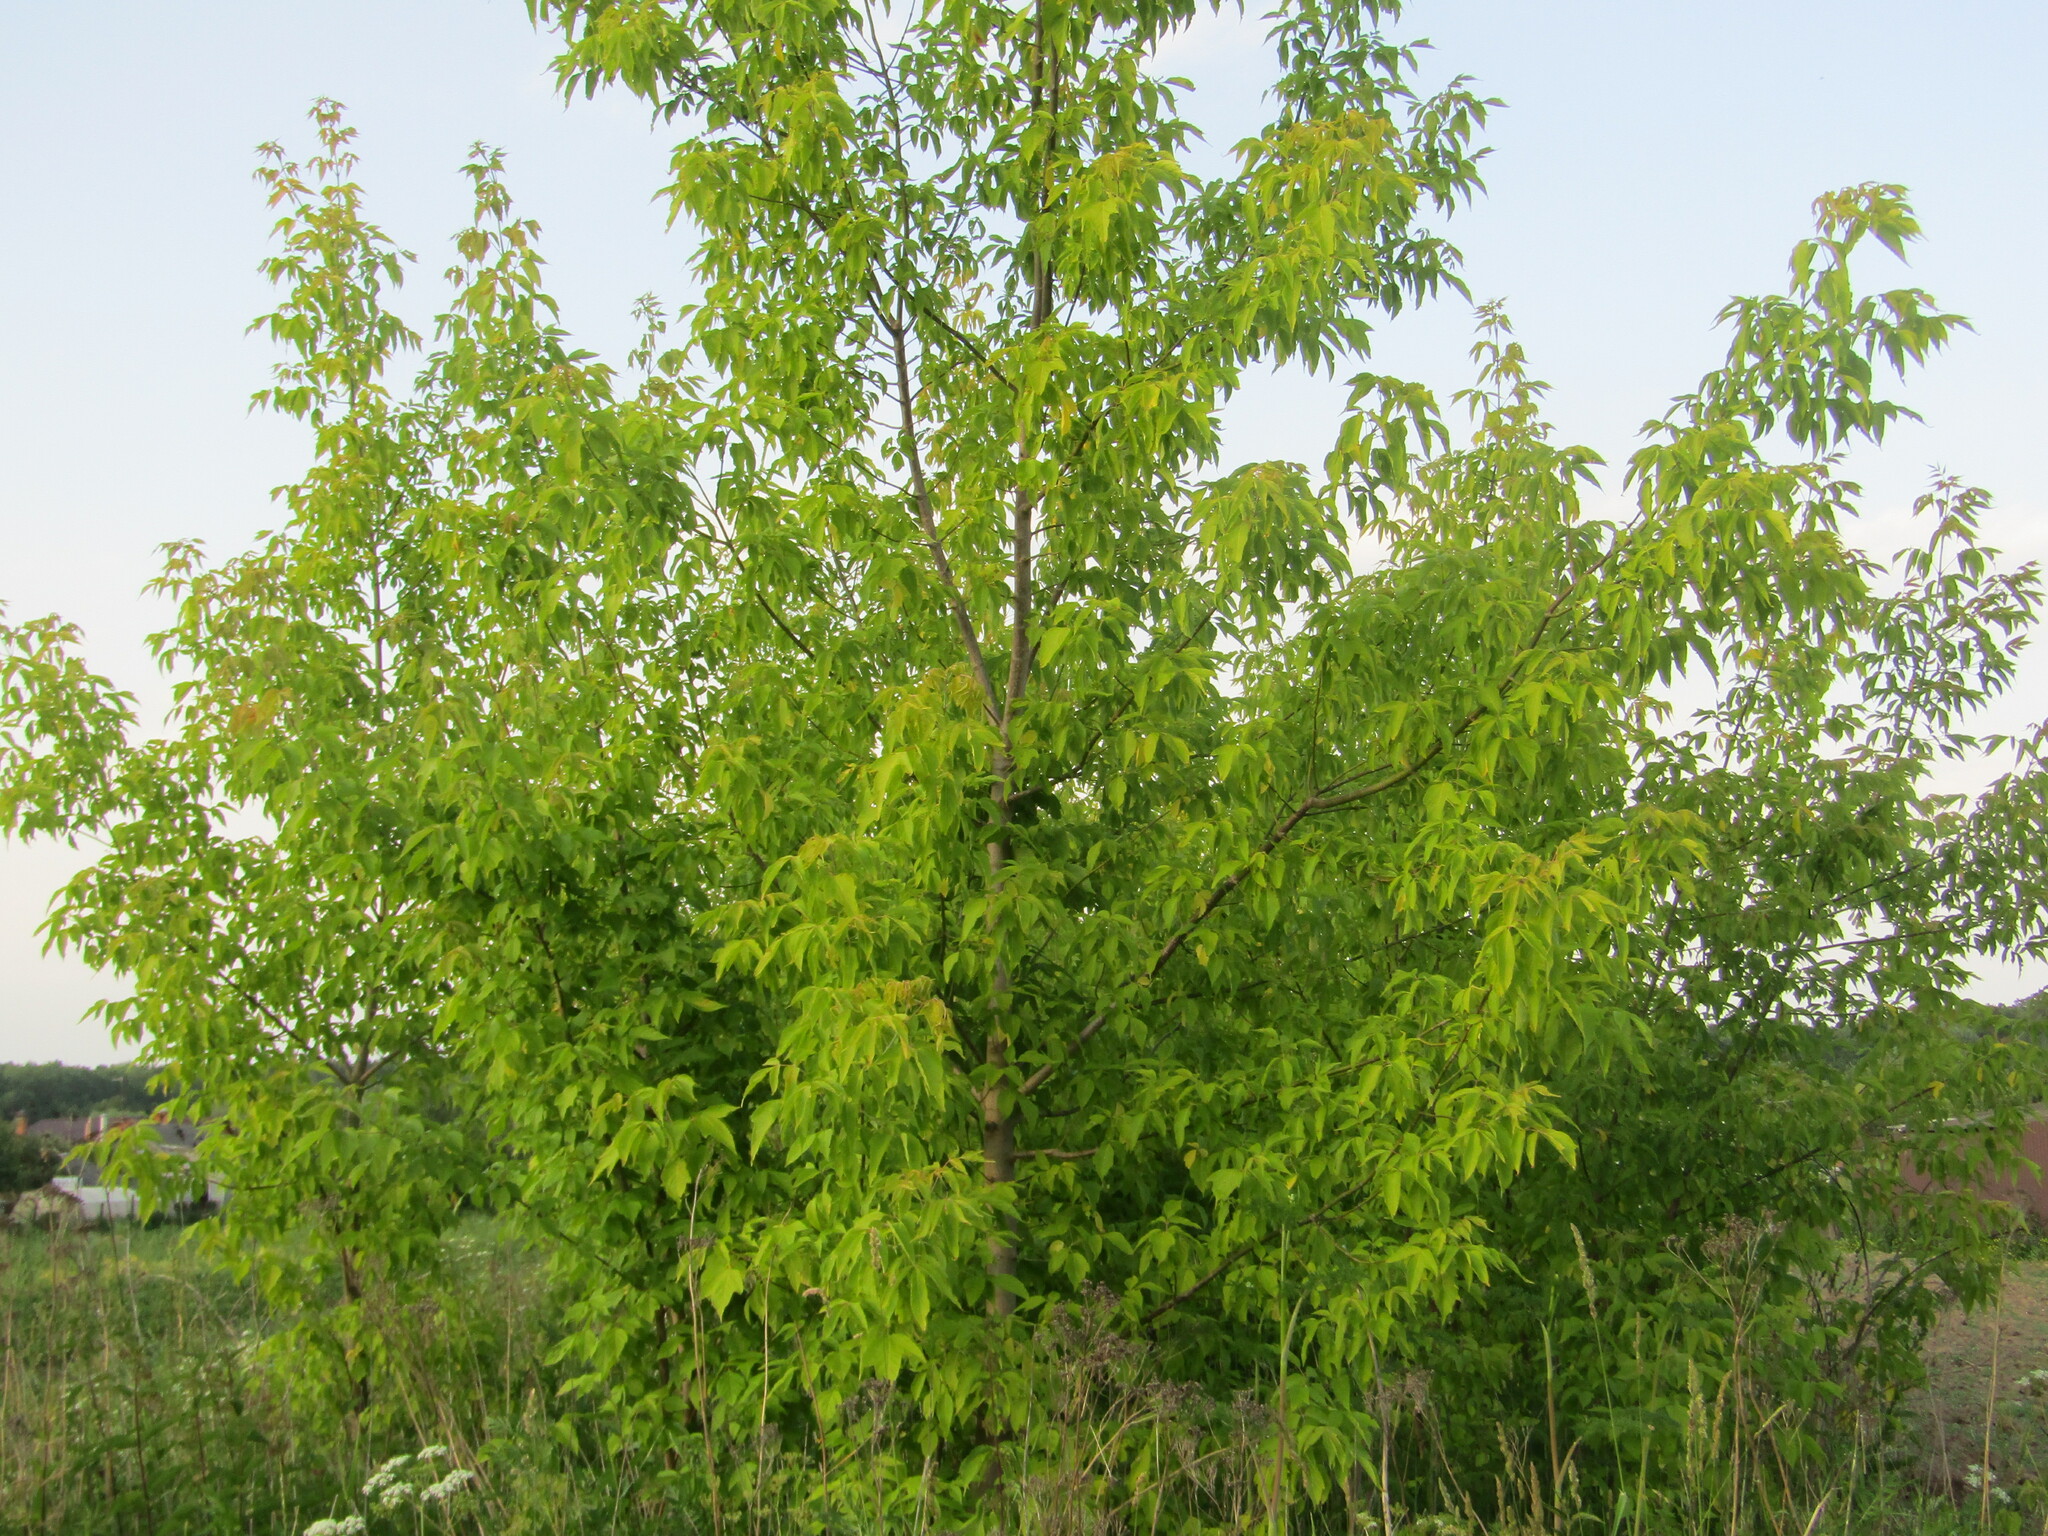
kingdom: Plantae
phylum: Tracheophyta
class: Magnoliopsida
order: Sapindales
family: Sapindaceae
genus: Acer
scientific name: Acer negundo
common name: Ashleaf maple
